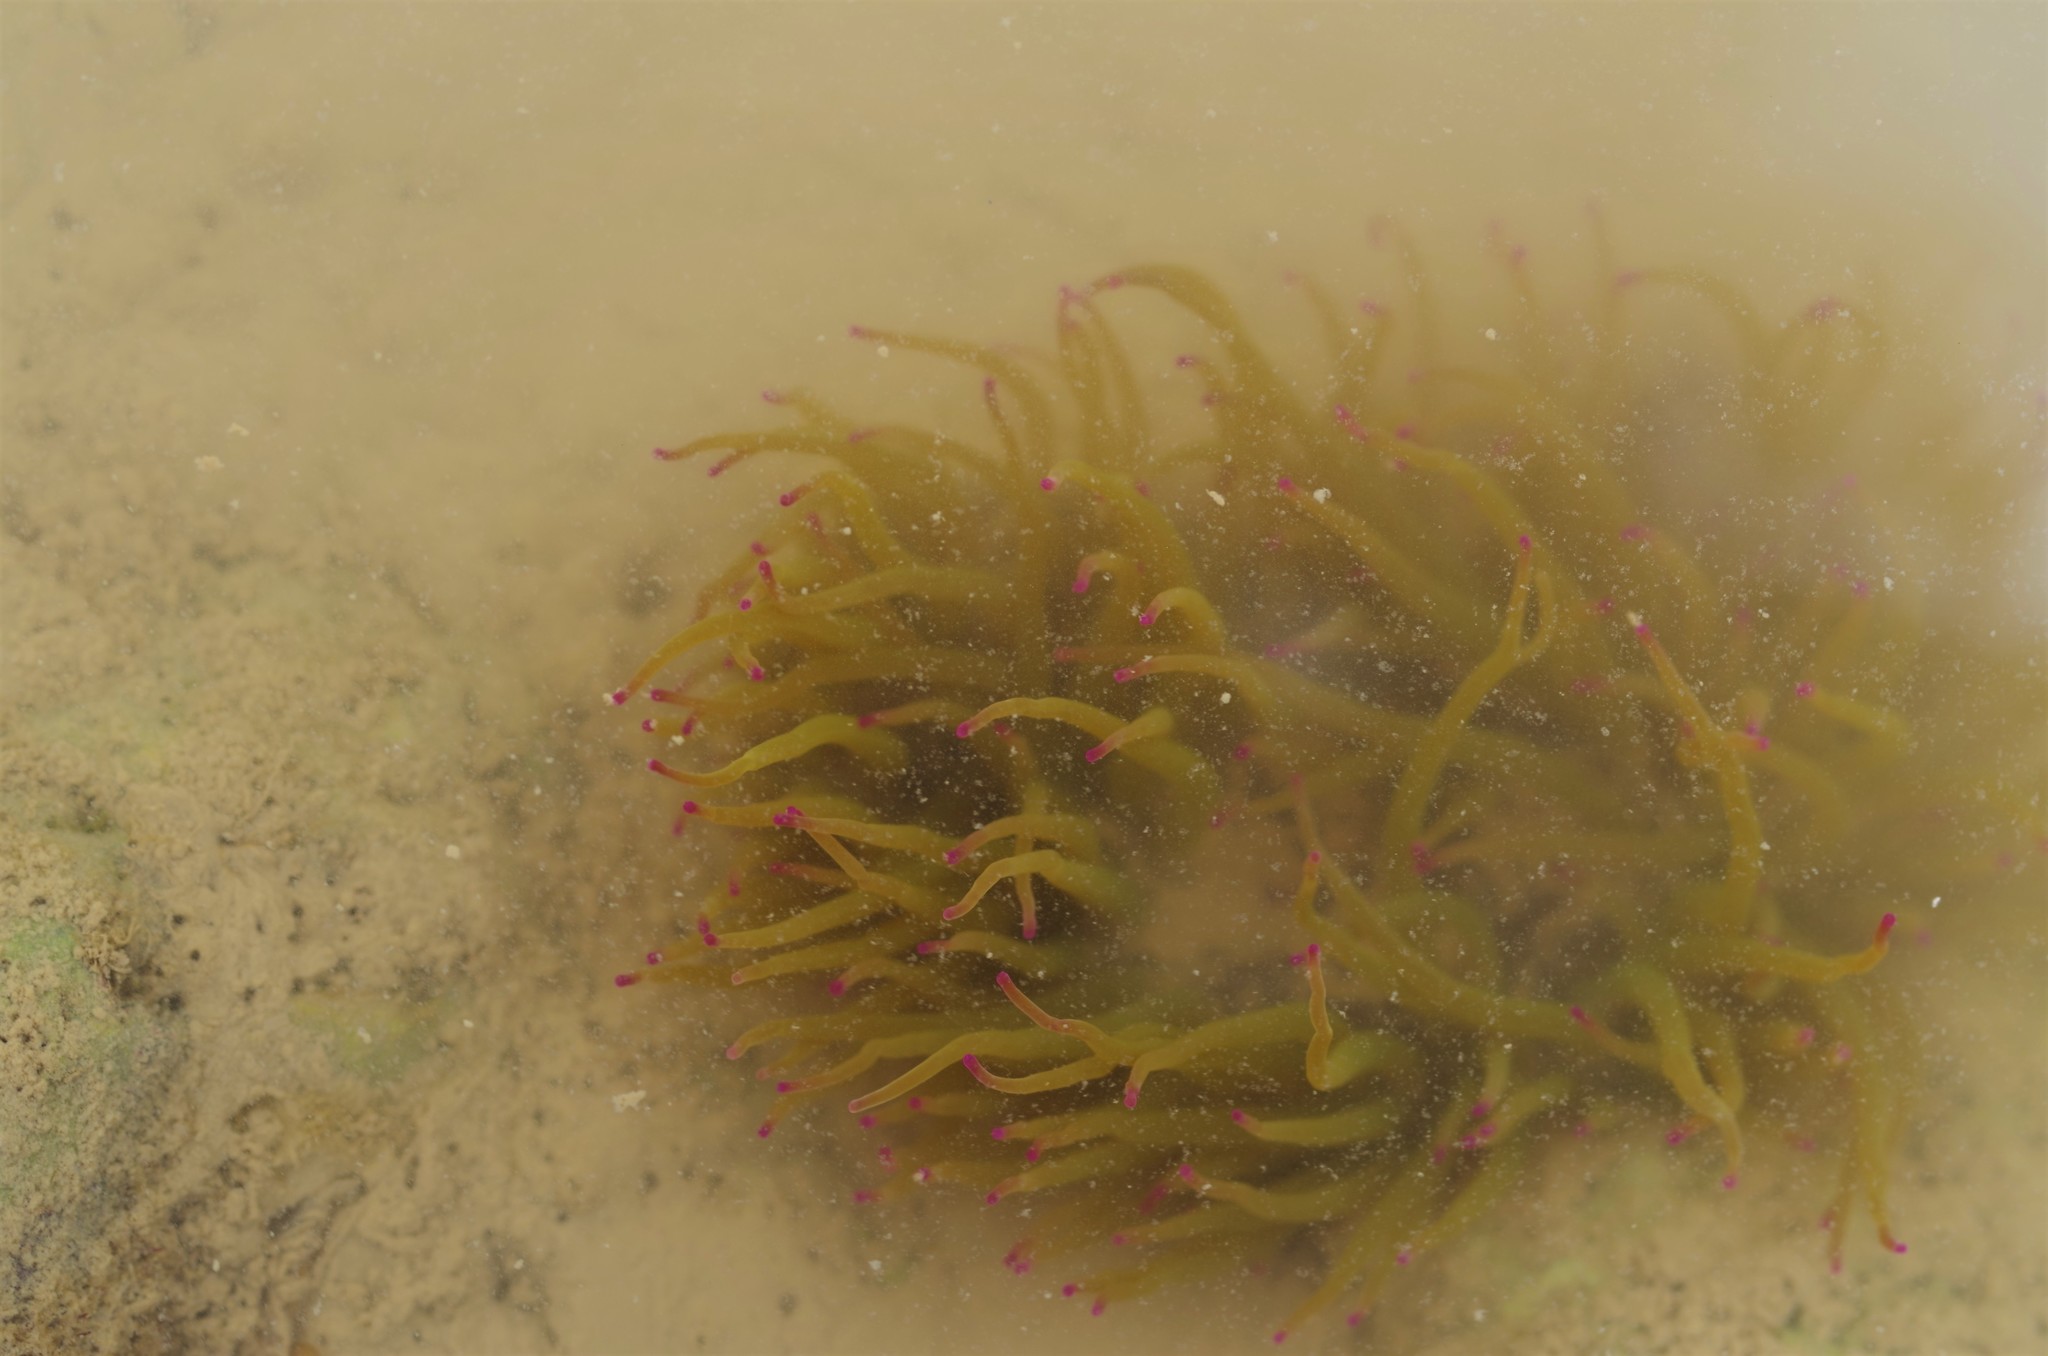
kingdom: Animalia
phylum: Cnidaria
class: Anthozoa
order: Actiniaria
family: Actiniidae
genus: Anemonia
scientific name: Anemonia viridis
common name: Snakelocks anemone
